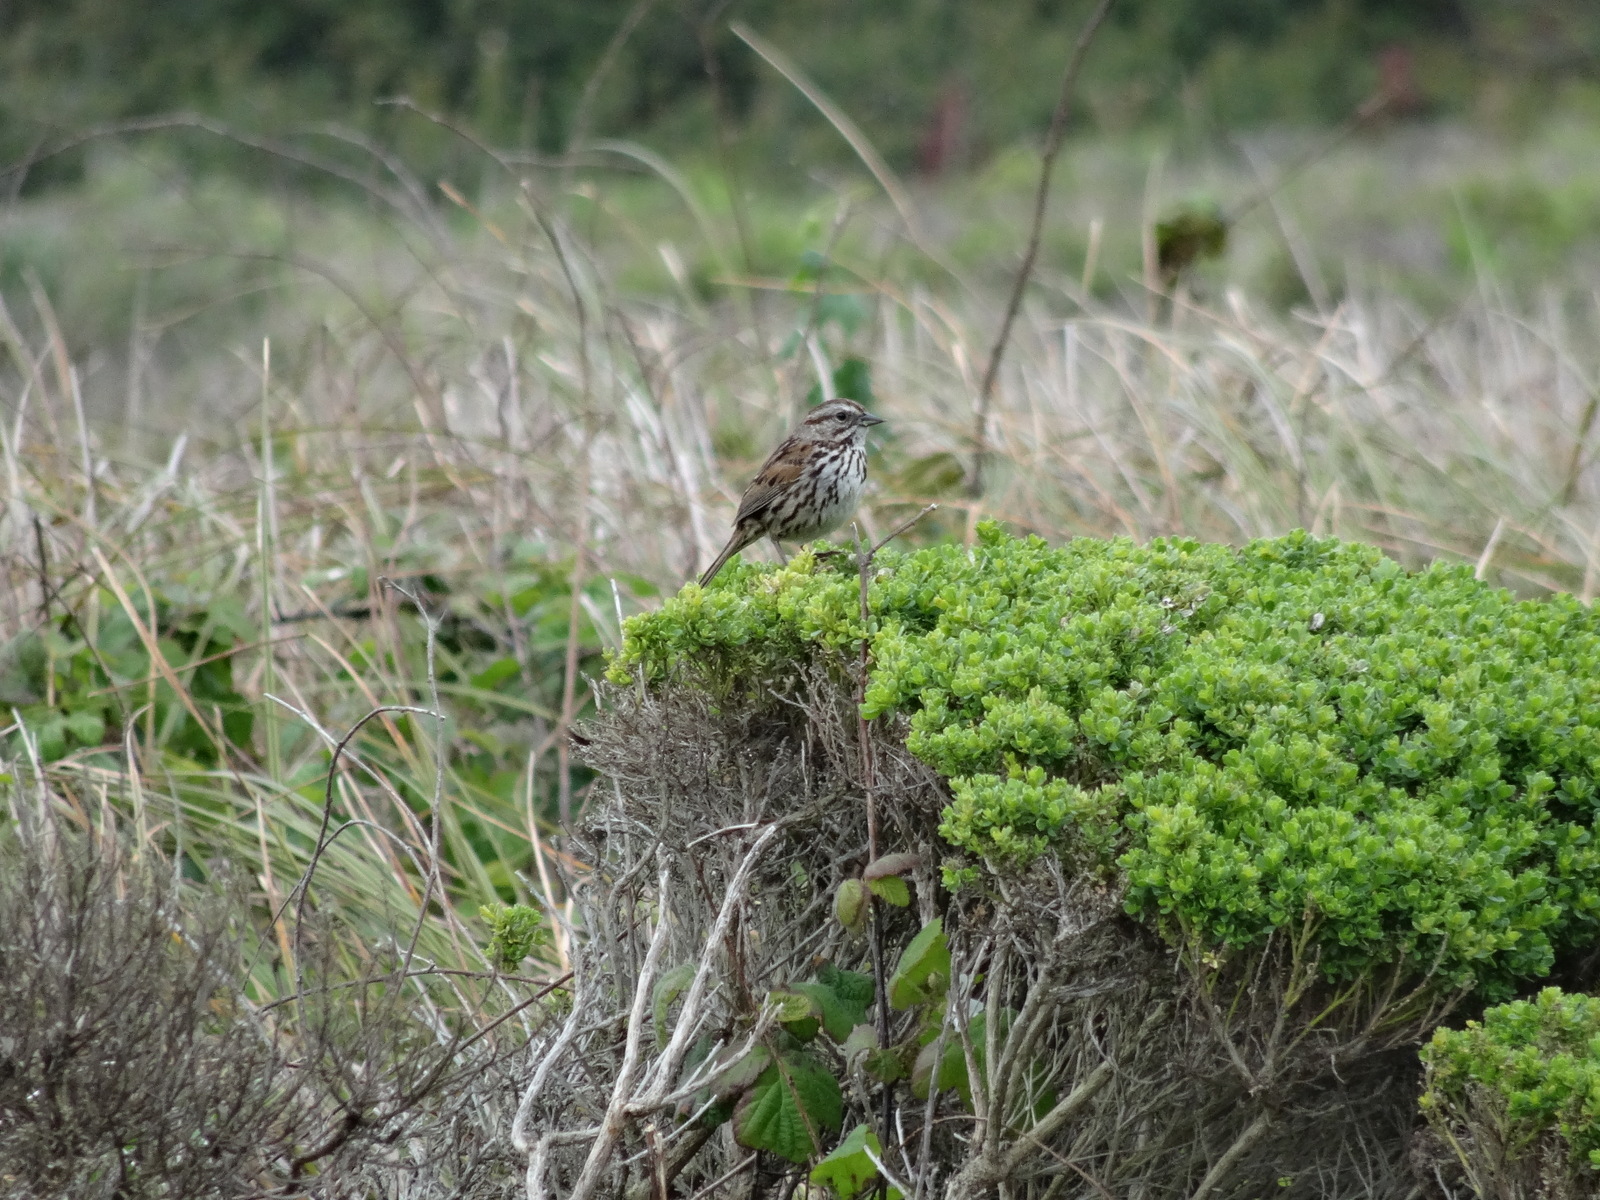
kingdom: Animalia
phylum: Chordata
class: Aves
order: Passeriformes
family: Passerellidae
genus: Melospiza
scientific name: Melospiza melodia
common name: Song sparrow
